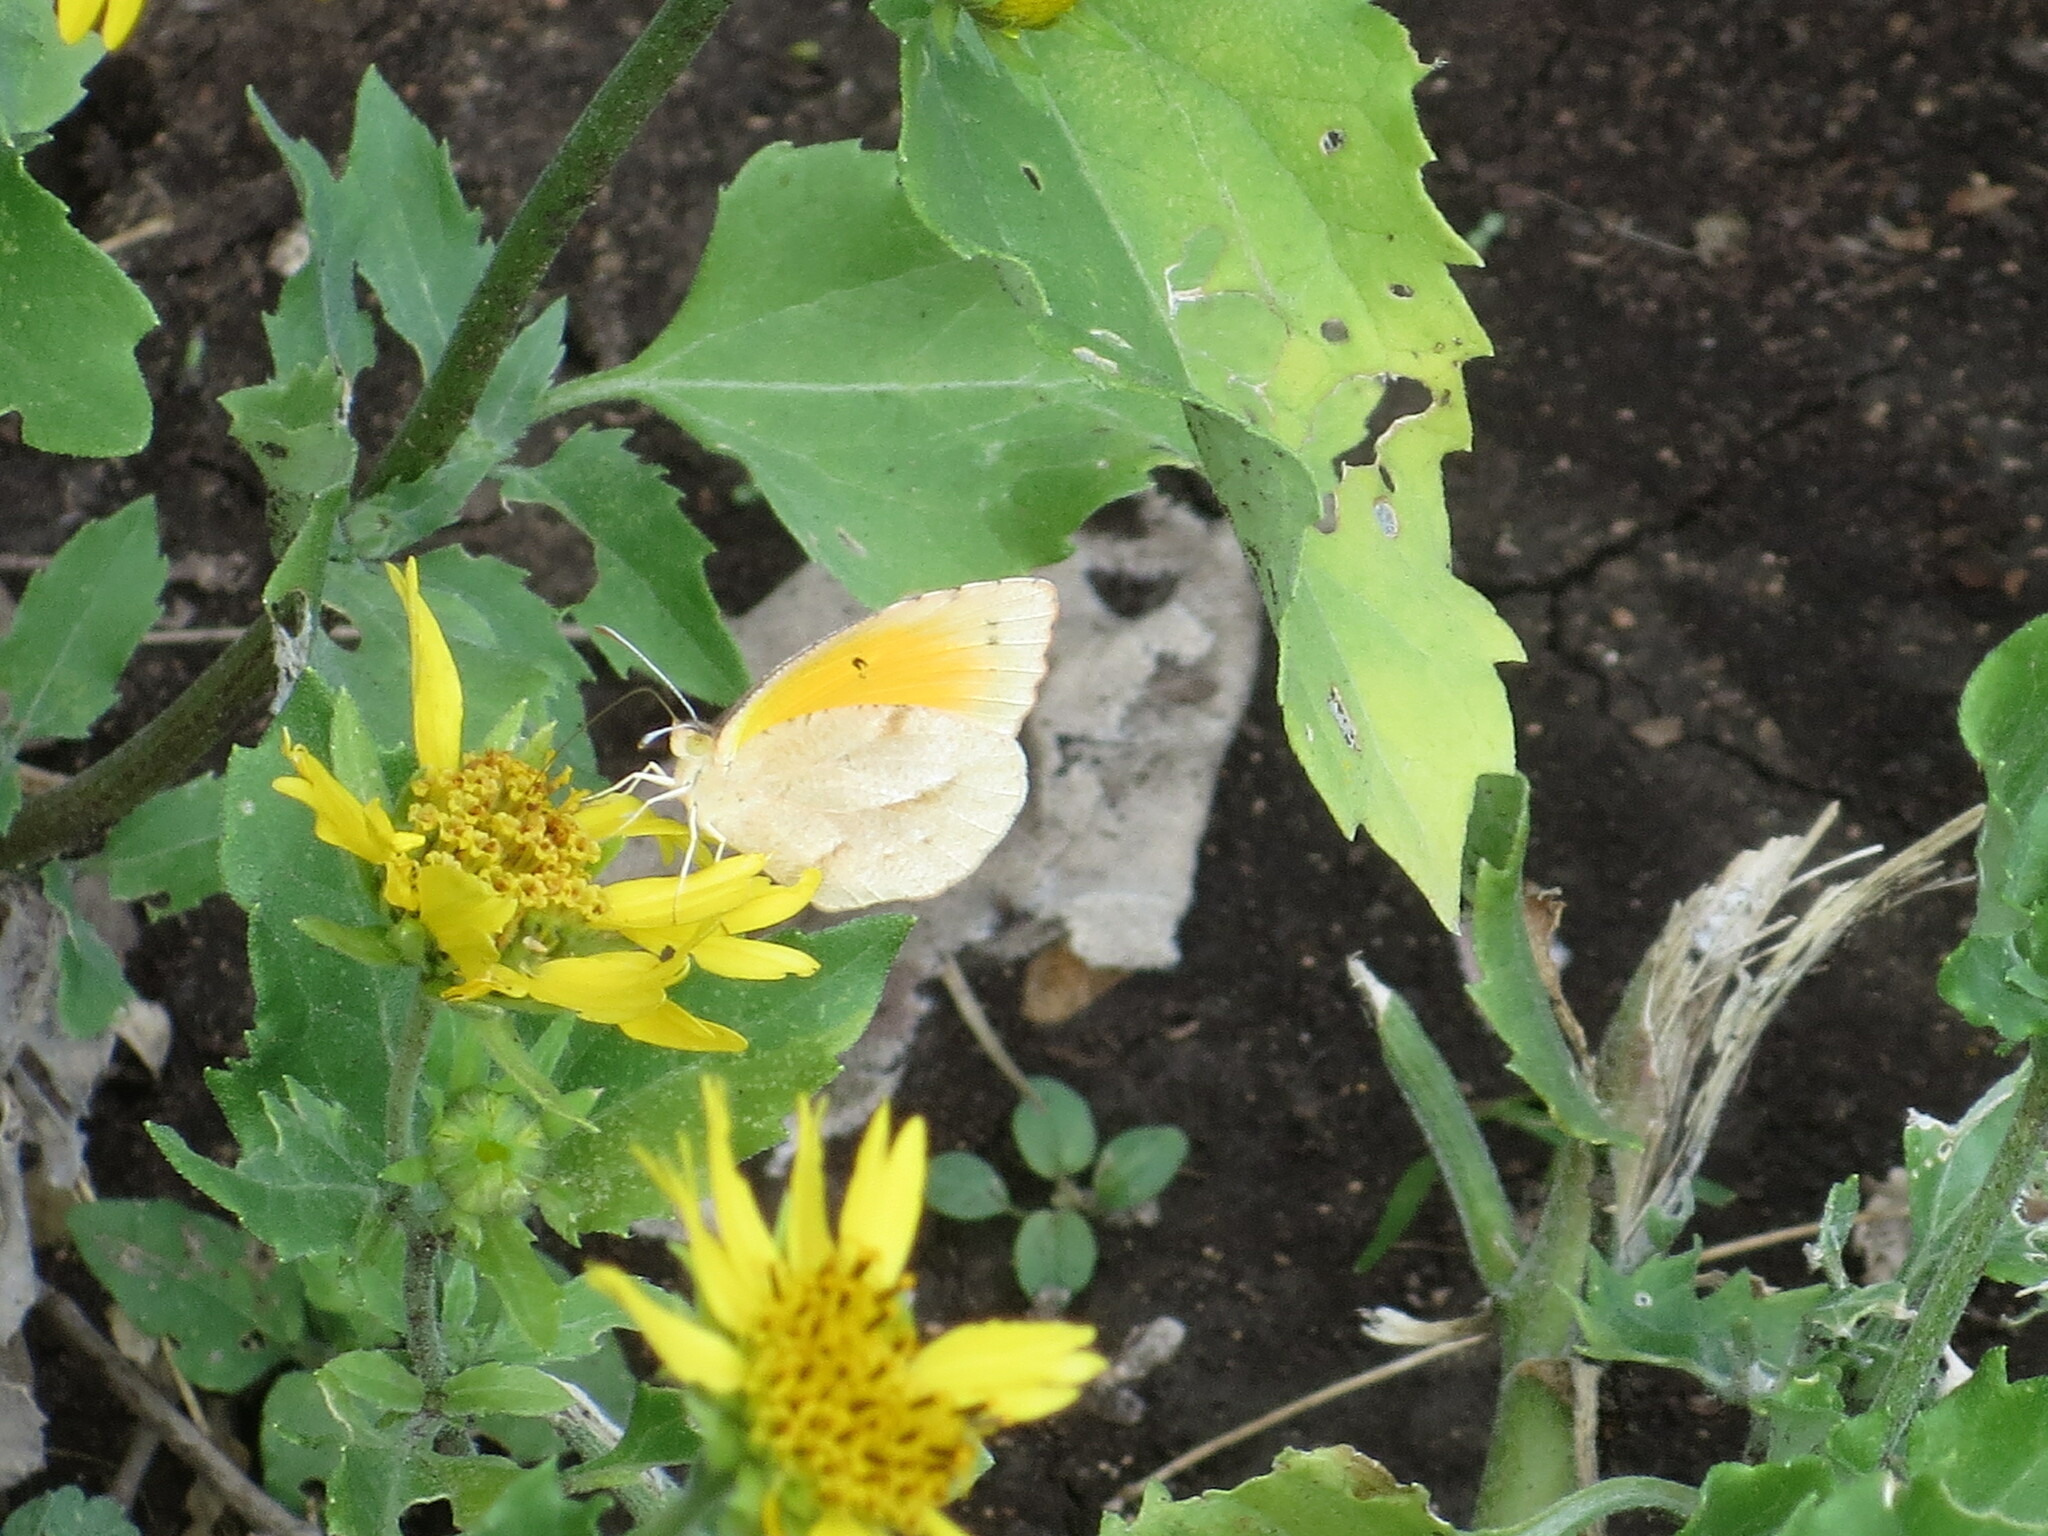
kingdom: Animalia
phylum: Arthropoda
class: Insecta
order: Lepidoptera
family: Pieridae
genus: Abaeis
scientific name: Abaeis nicippe
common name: Sleepy orange
